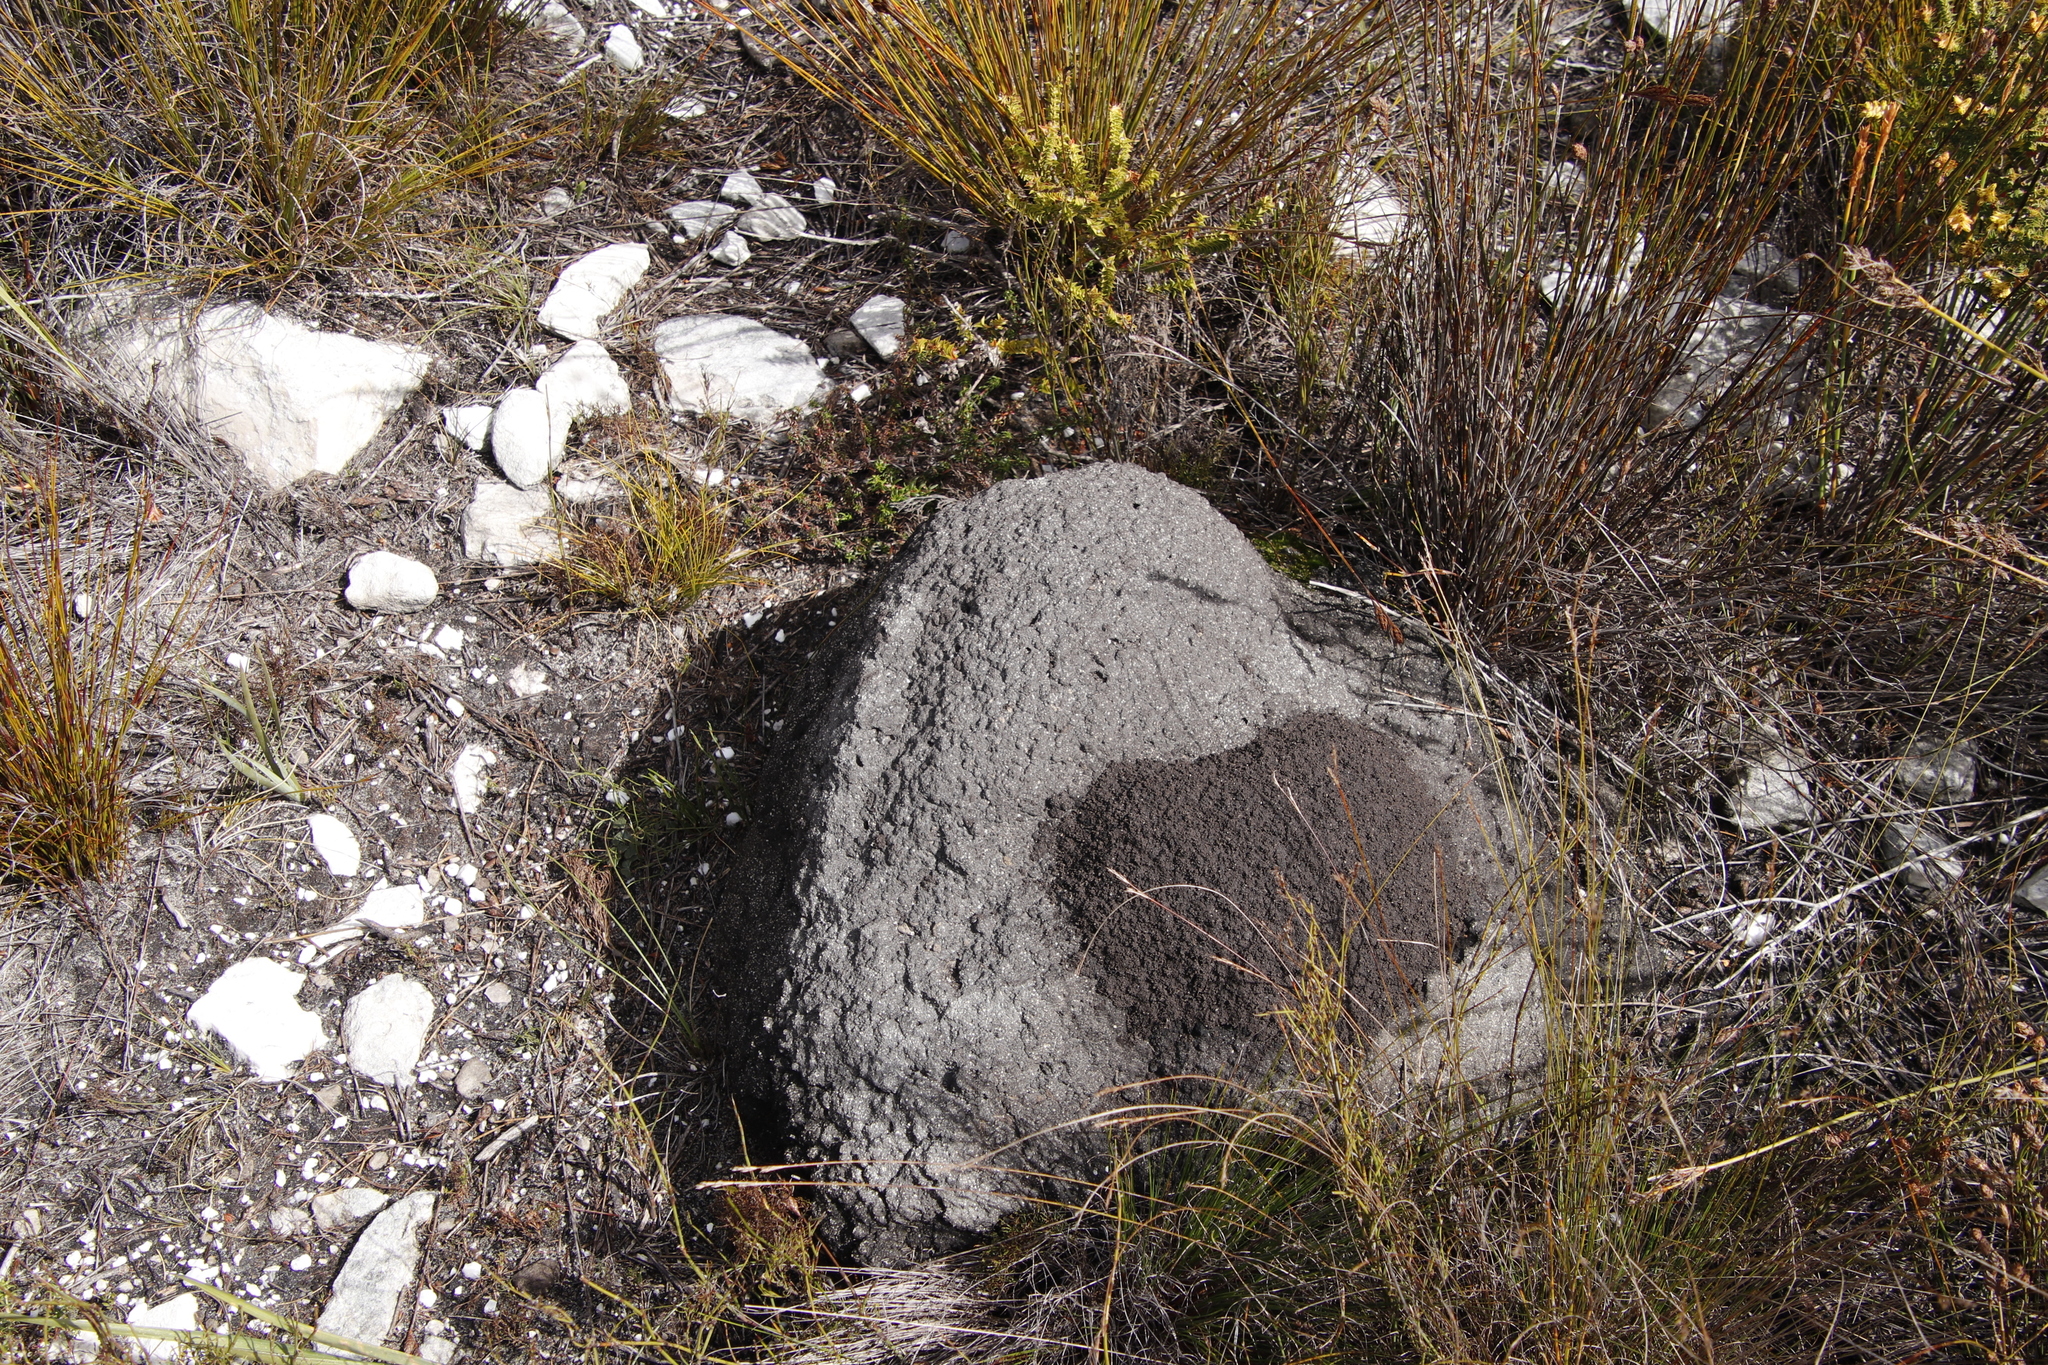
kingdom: Animalia
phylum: Arthropoda
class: Insecta
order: Blattodea
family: Termitidae
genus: Amitermes
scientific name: Amitermes hastatus
